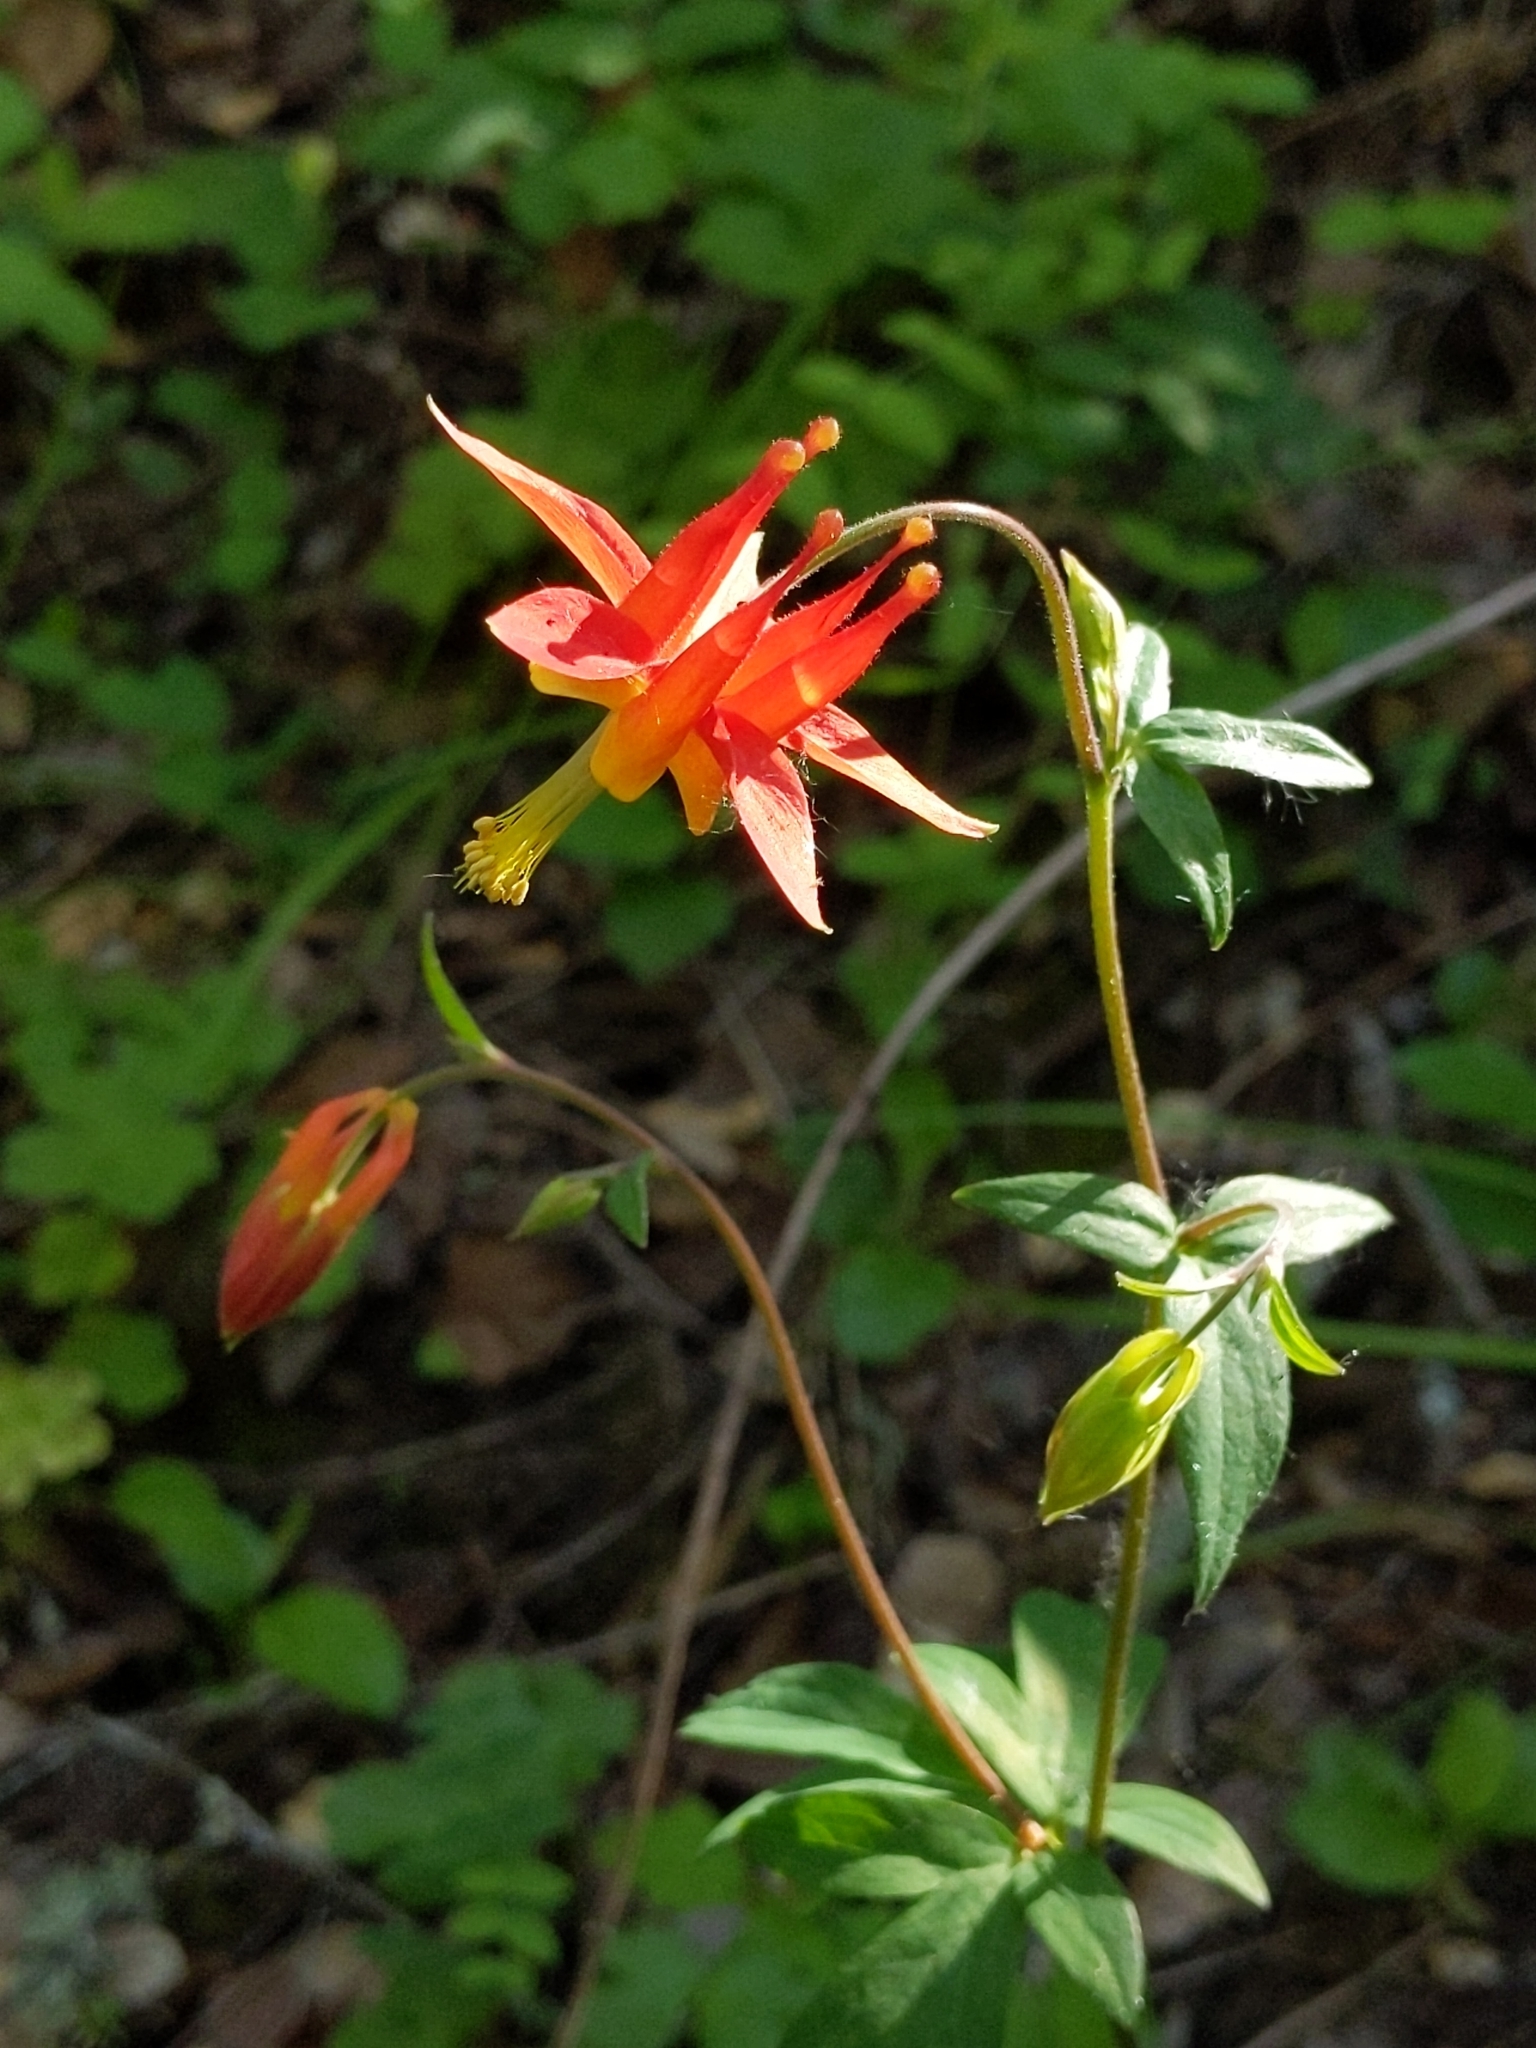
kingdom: Plantae
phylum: Tracheophyta
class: Magnoliopsida
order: Ranunculales
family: Ranunculaceae
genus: Aquilegia
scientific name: Aquilegia formosa
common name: Sitka columbine
